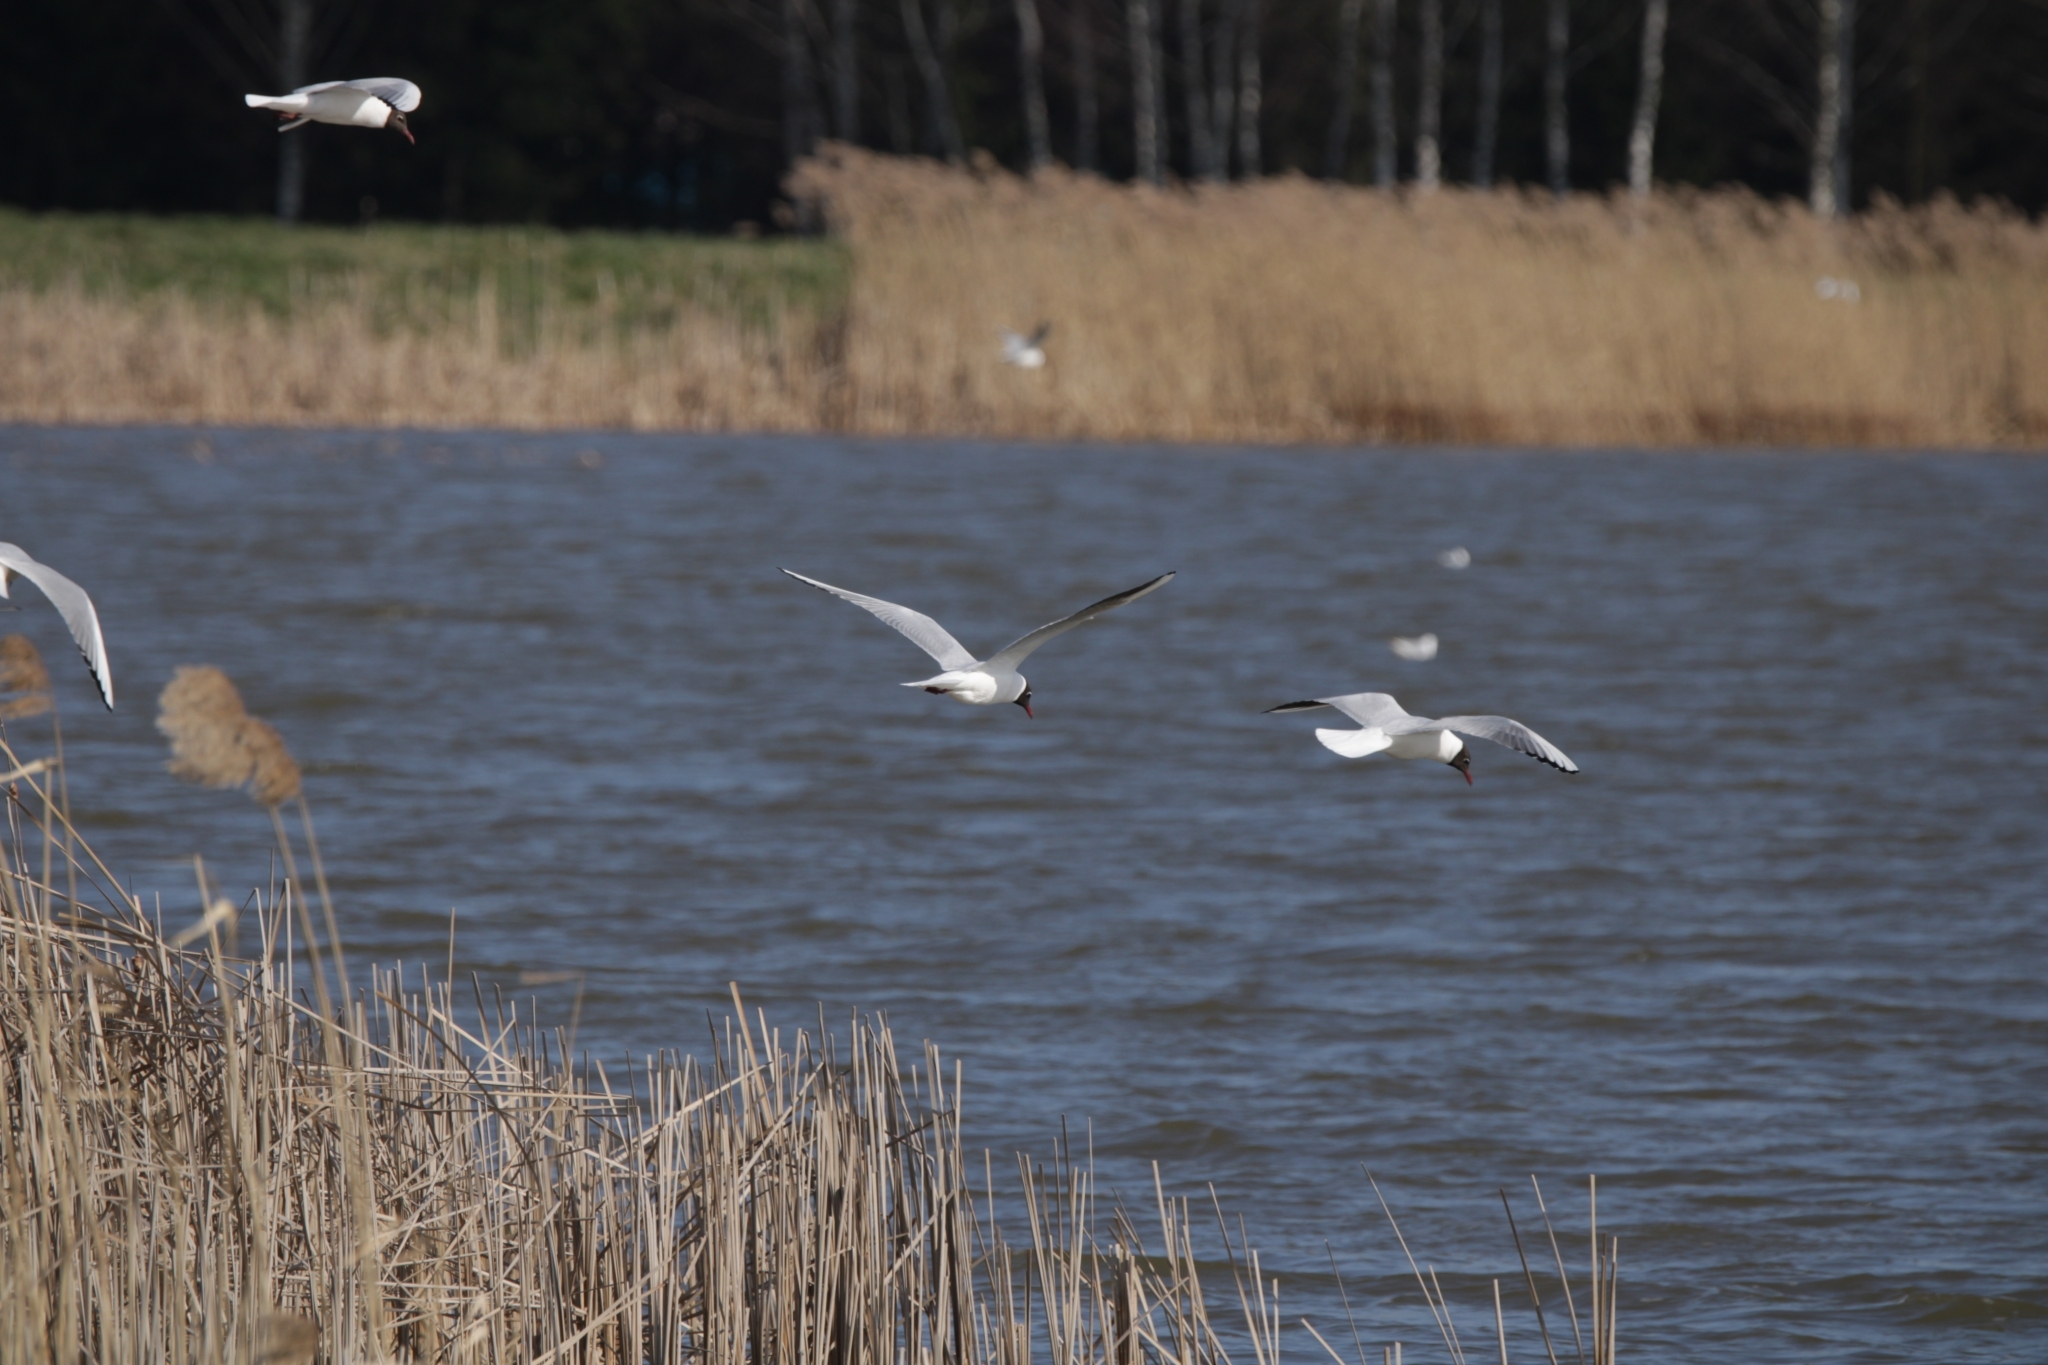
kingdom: Animalia
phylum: Chordata
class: Aves
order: Charadriiformes
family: Laridae
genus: Chroicocephalus
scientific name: Chroicocephalus ridibundus
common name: Black-headed gull
